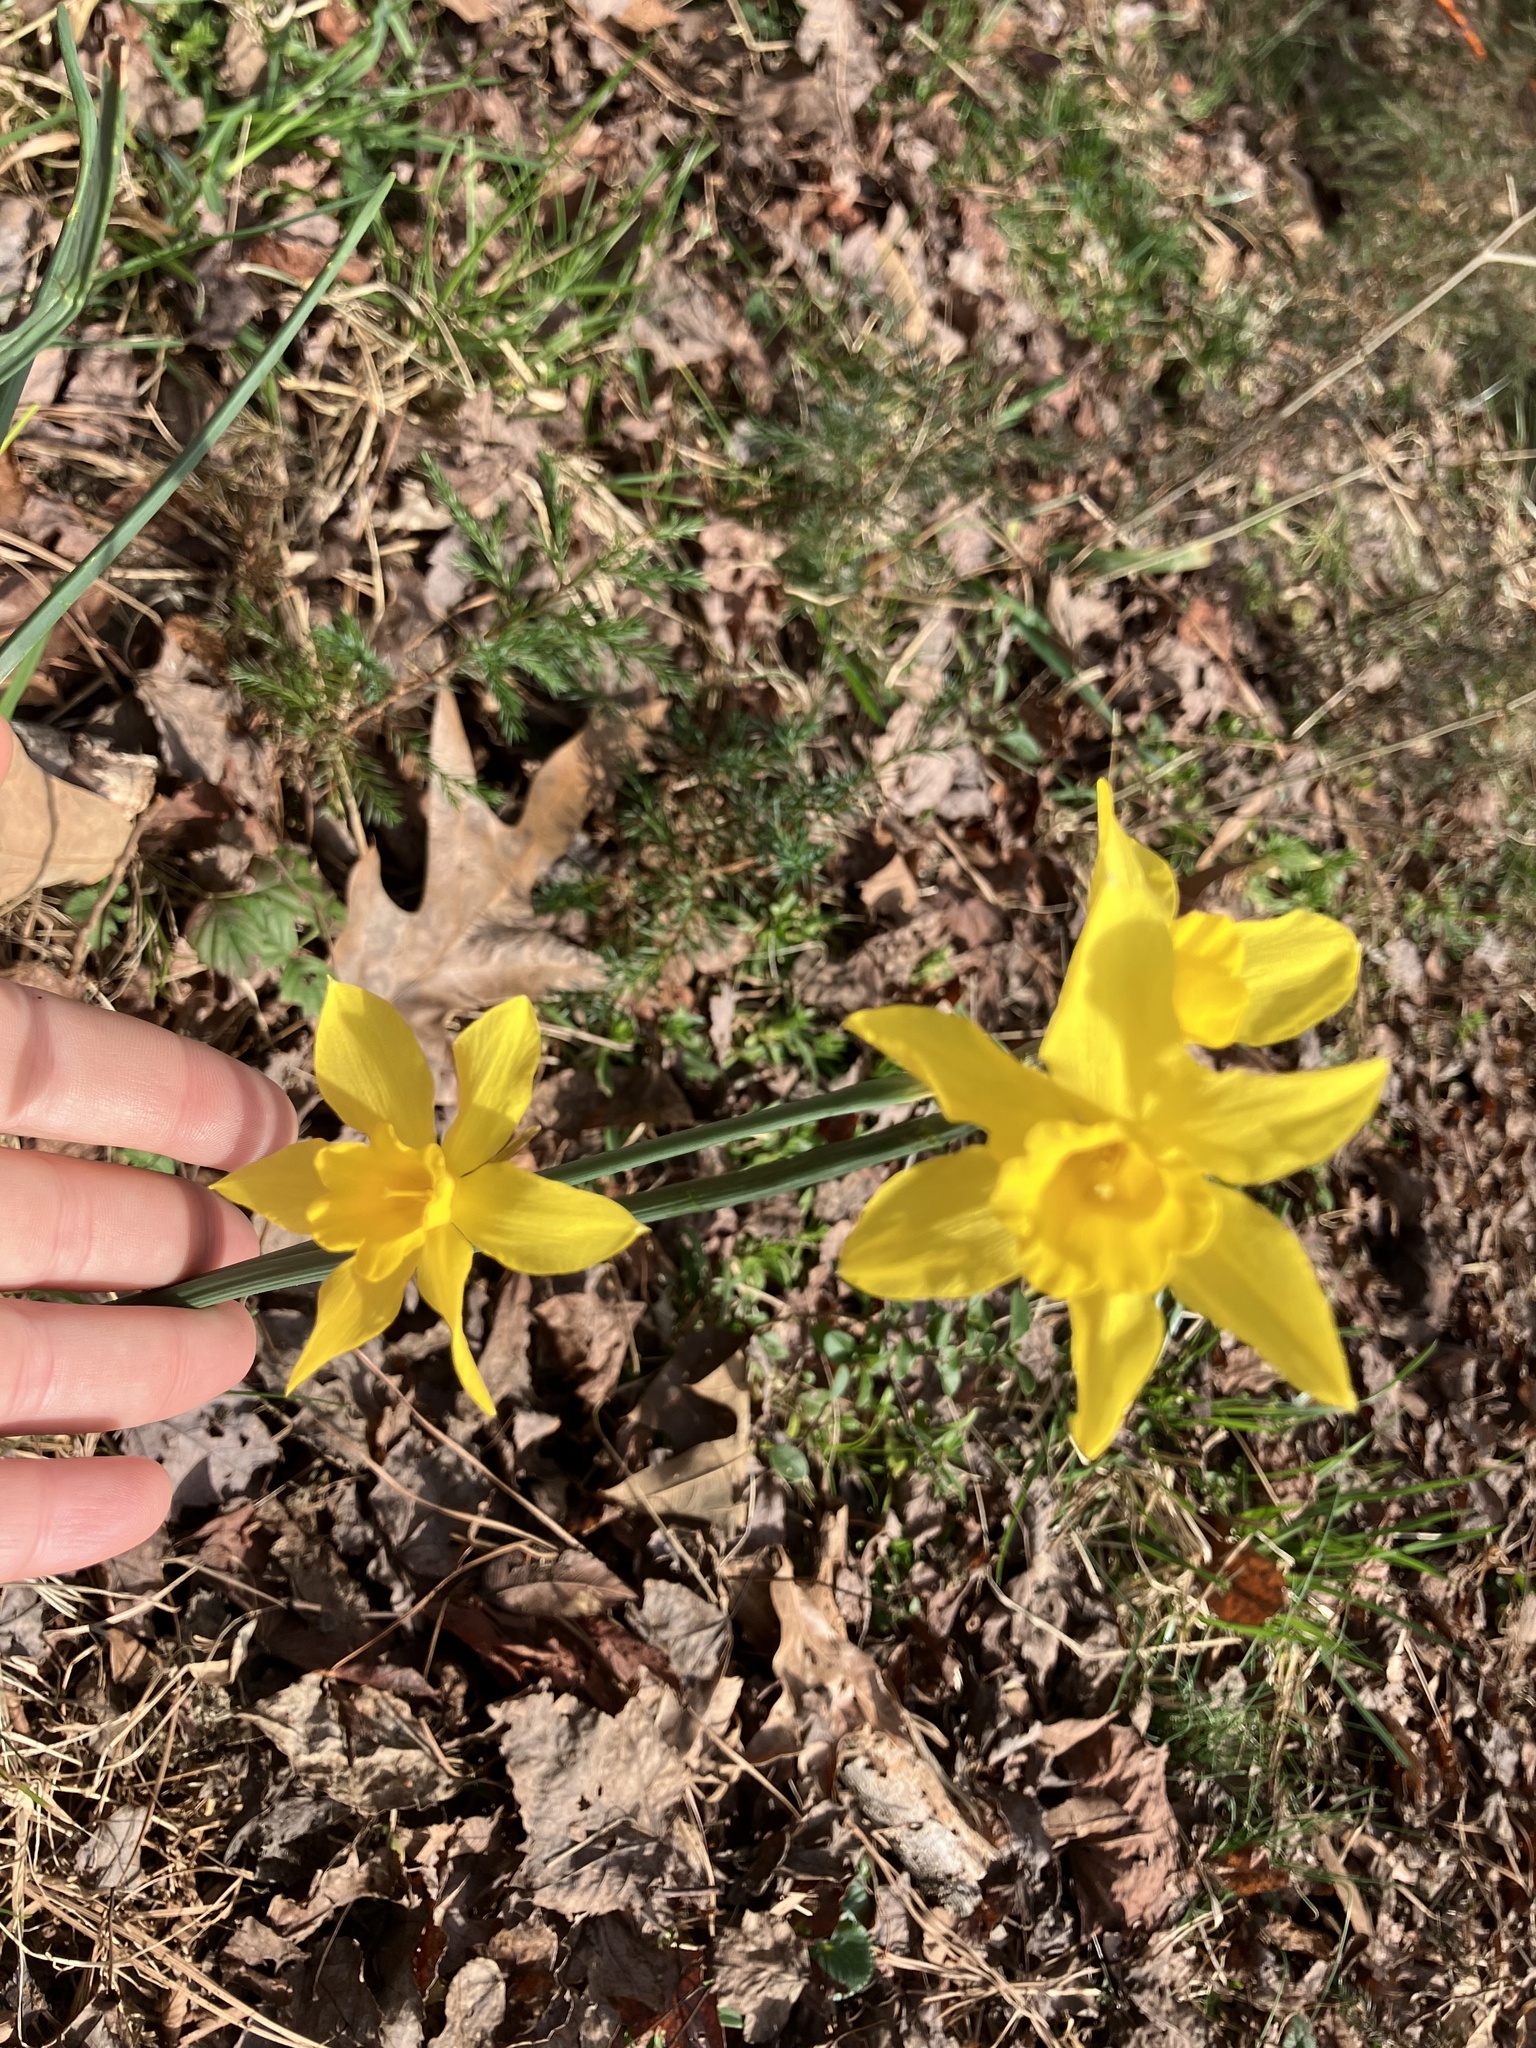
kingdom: Plantae
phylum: Tracheophyta
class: Liliopsida
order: Asparagales
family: Amaryllidaceae
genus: Narcissus
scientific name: Narcissus pseudonarcissus
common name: Daffodil
